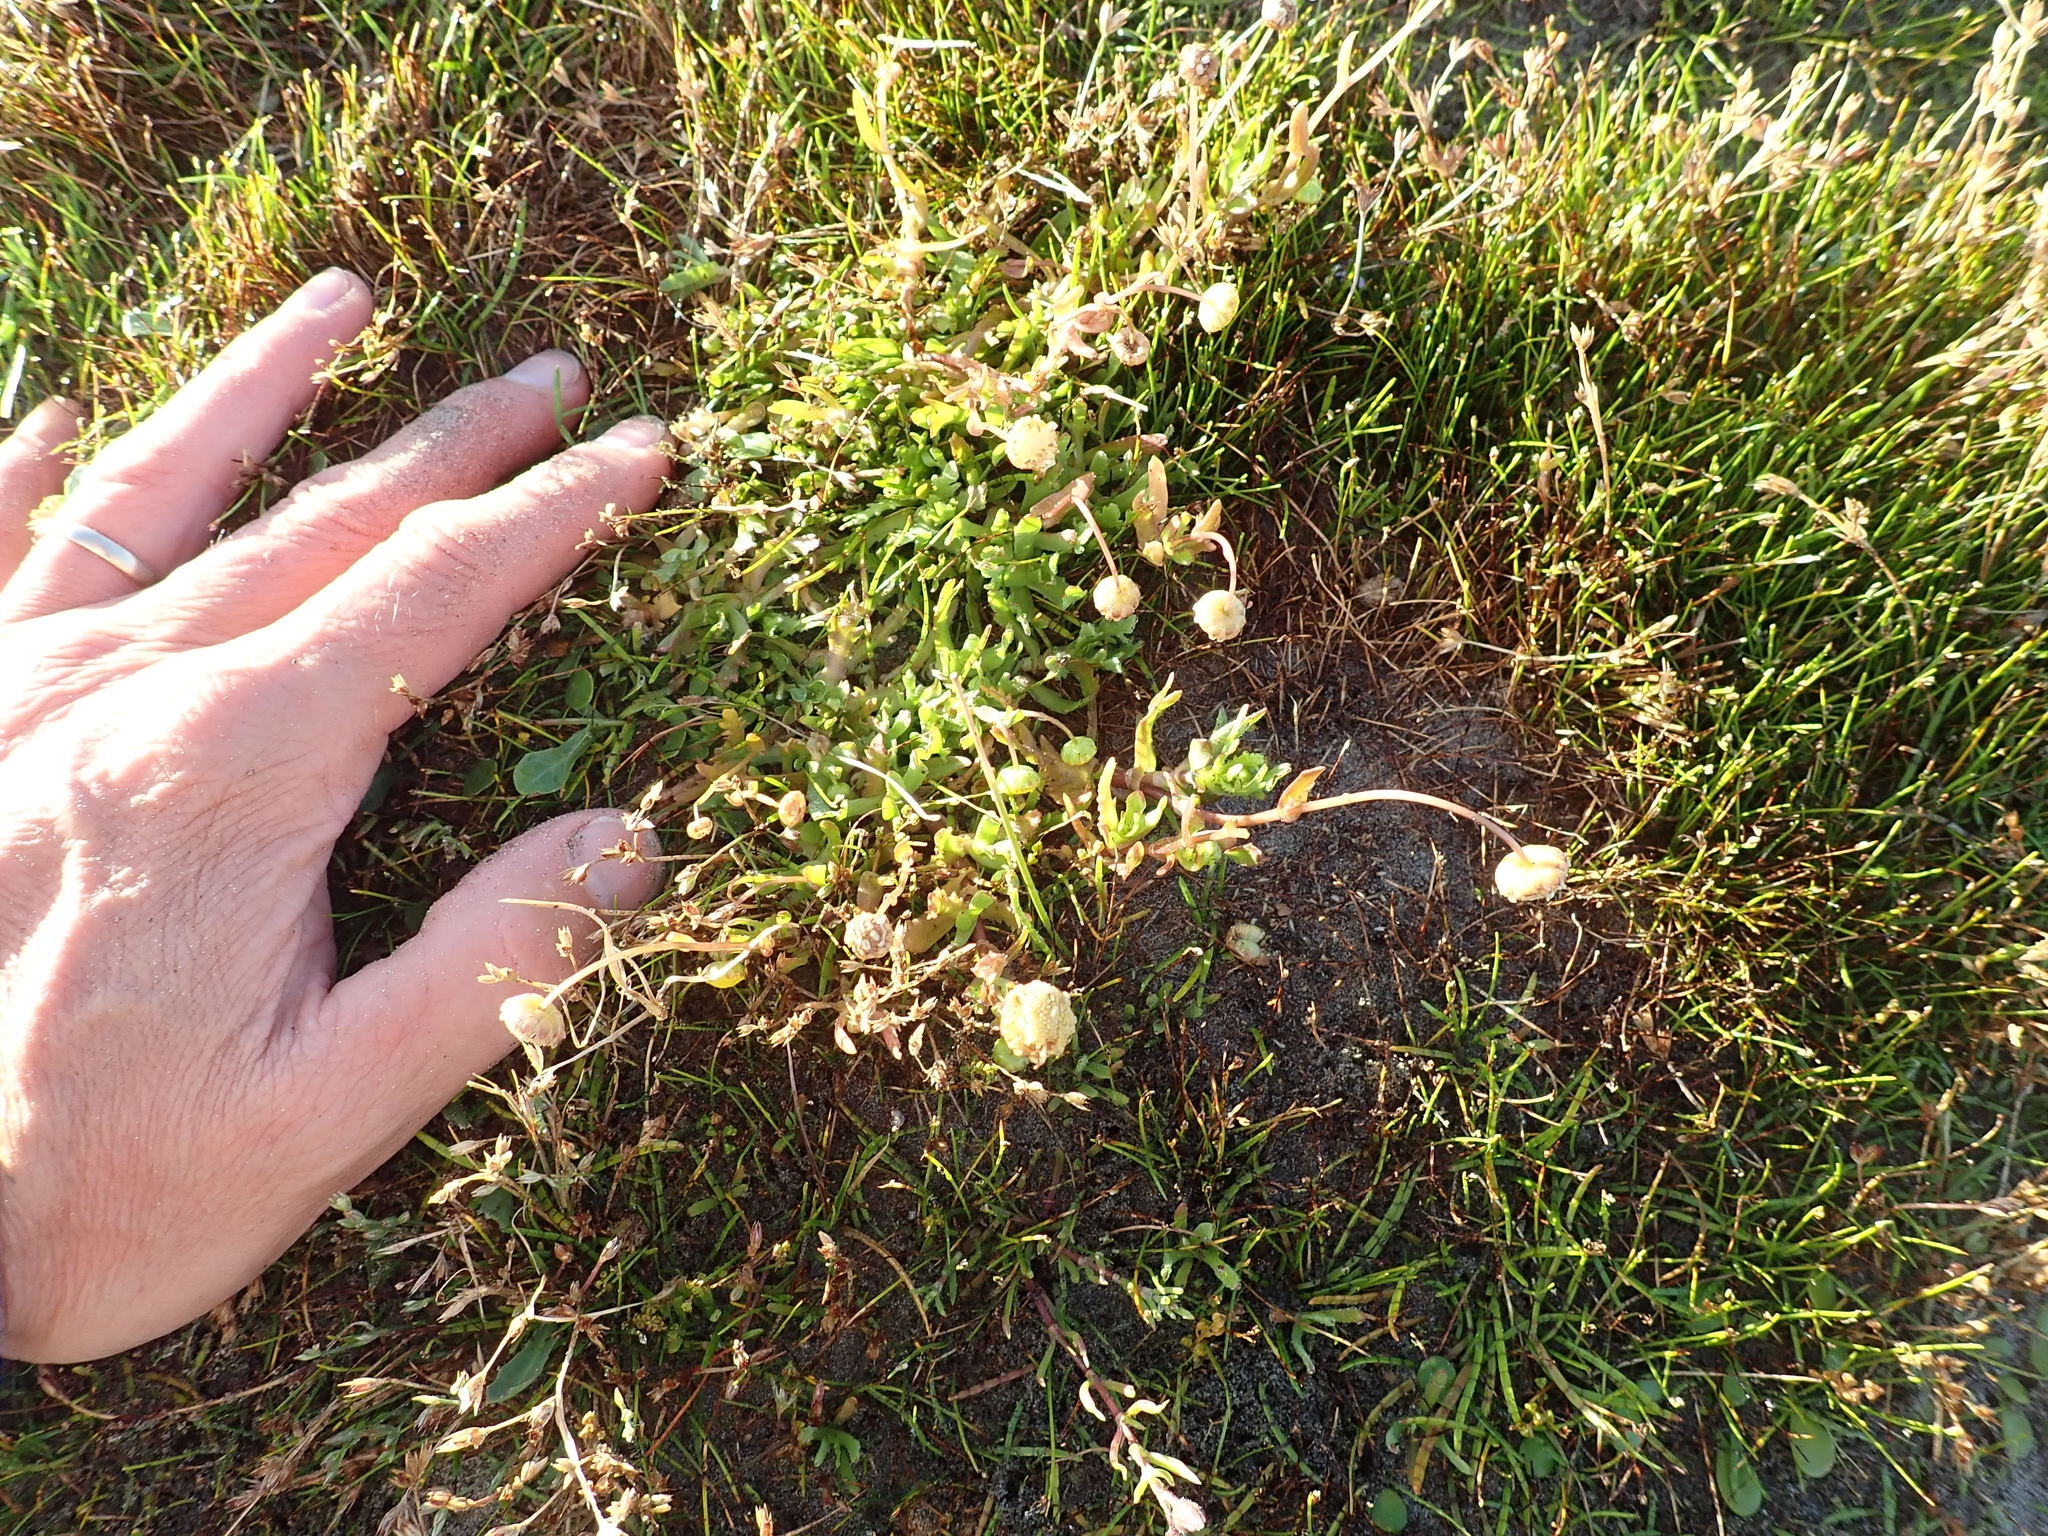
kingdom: Plantae
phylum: Tracheophyta
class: Magnoliopsida
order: Asterales
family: Asteraceae
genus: Cotula
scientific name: Cotula coronopifolia
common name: Buttonweed
